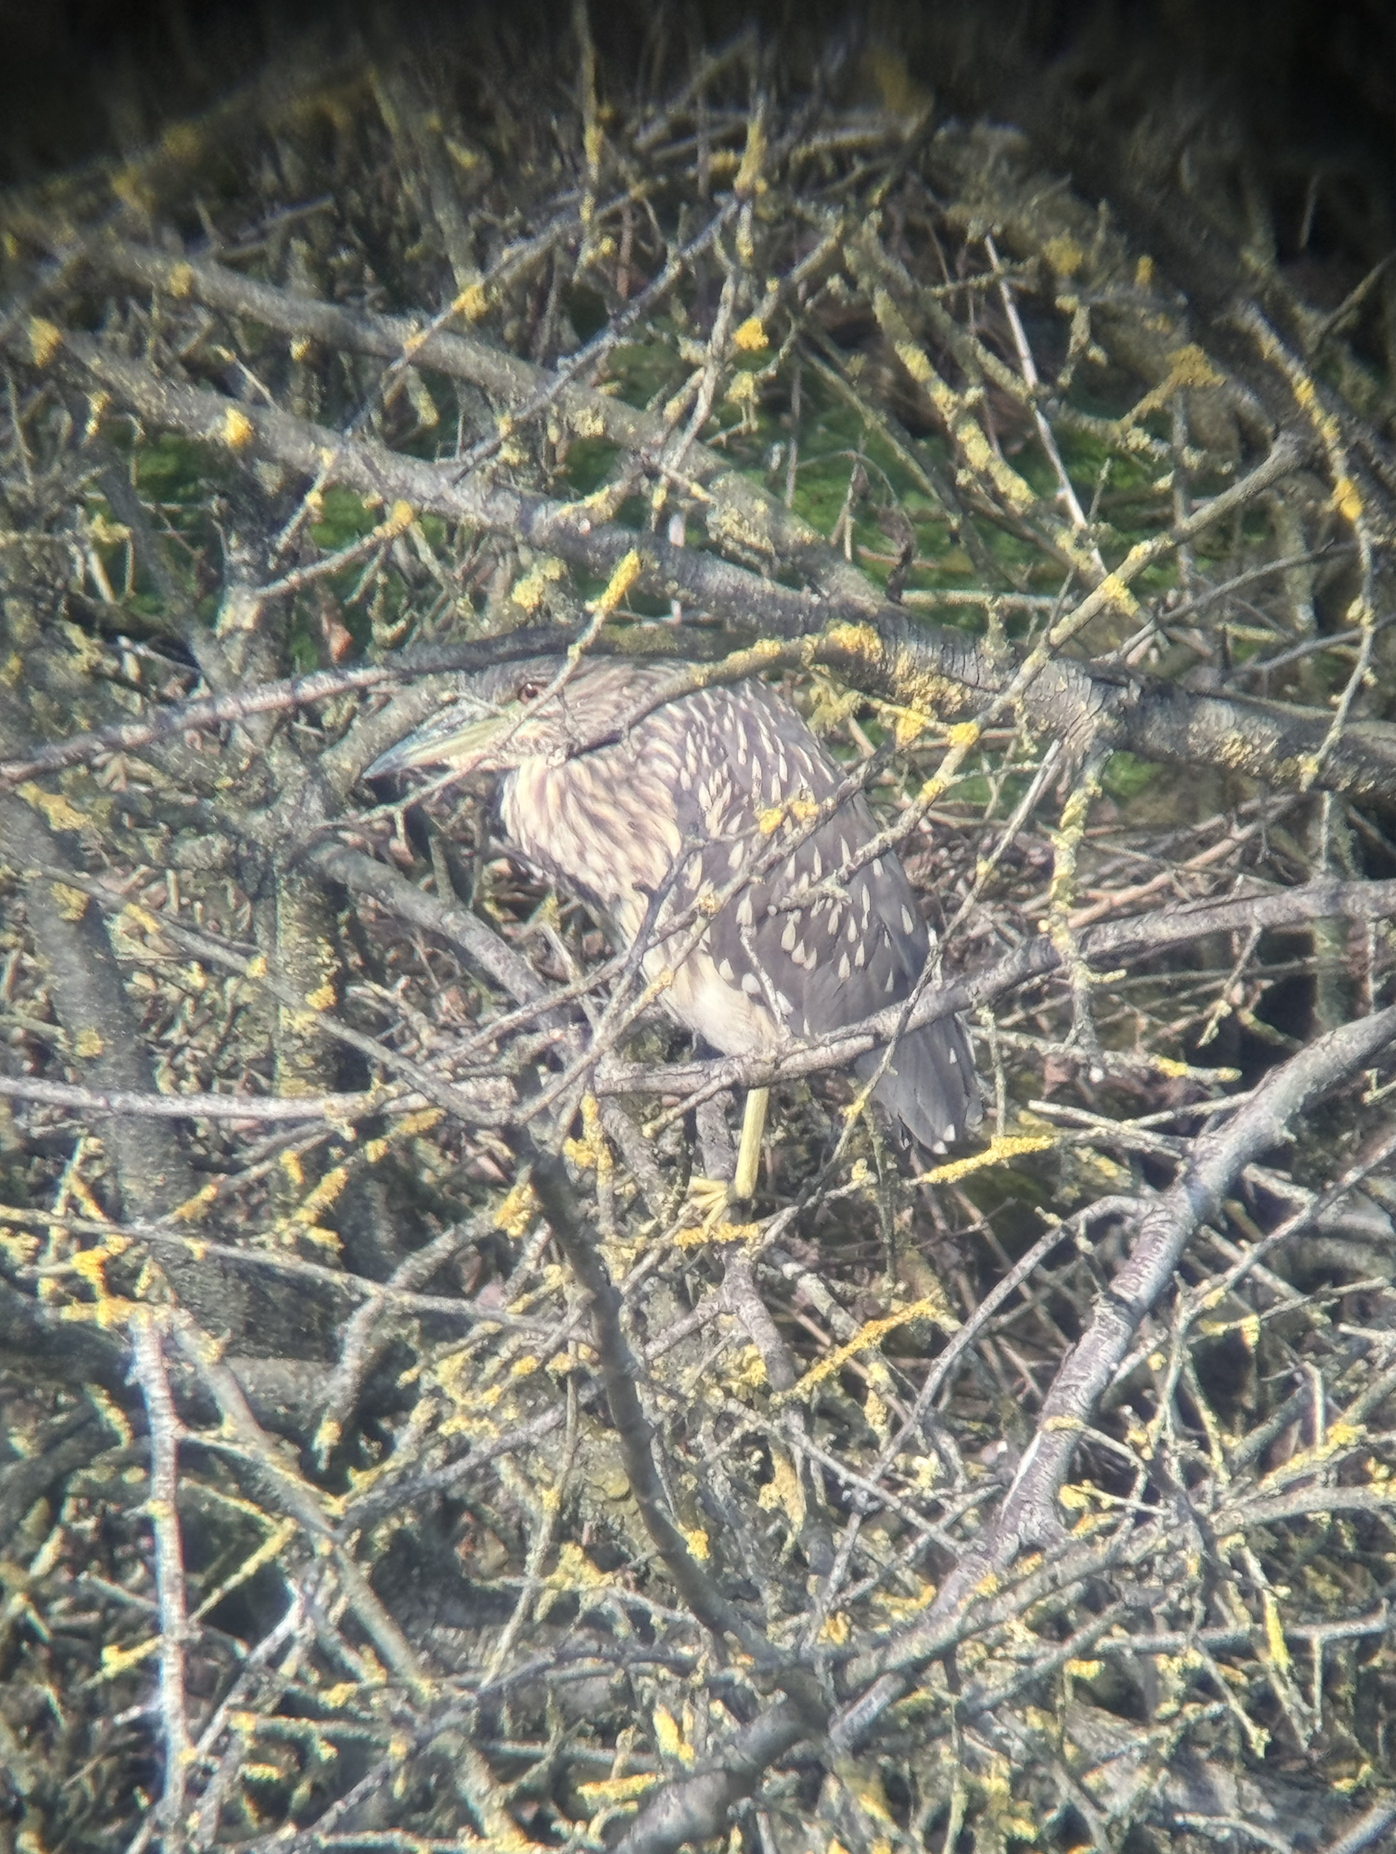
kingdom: Animalia
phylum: Chordata
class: Aves
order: Pelecaniformes
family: Ardeidae
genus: Nycticorax
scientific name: Nycticorax nycticorax
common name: Black-crowned night heron
